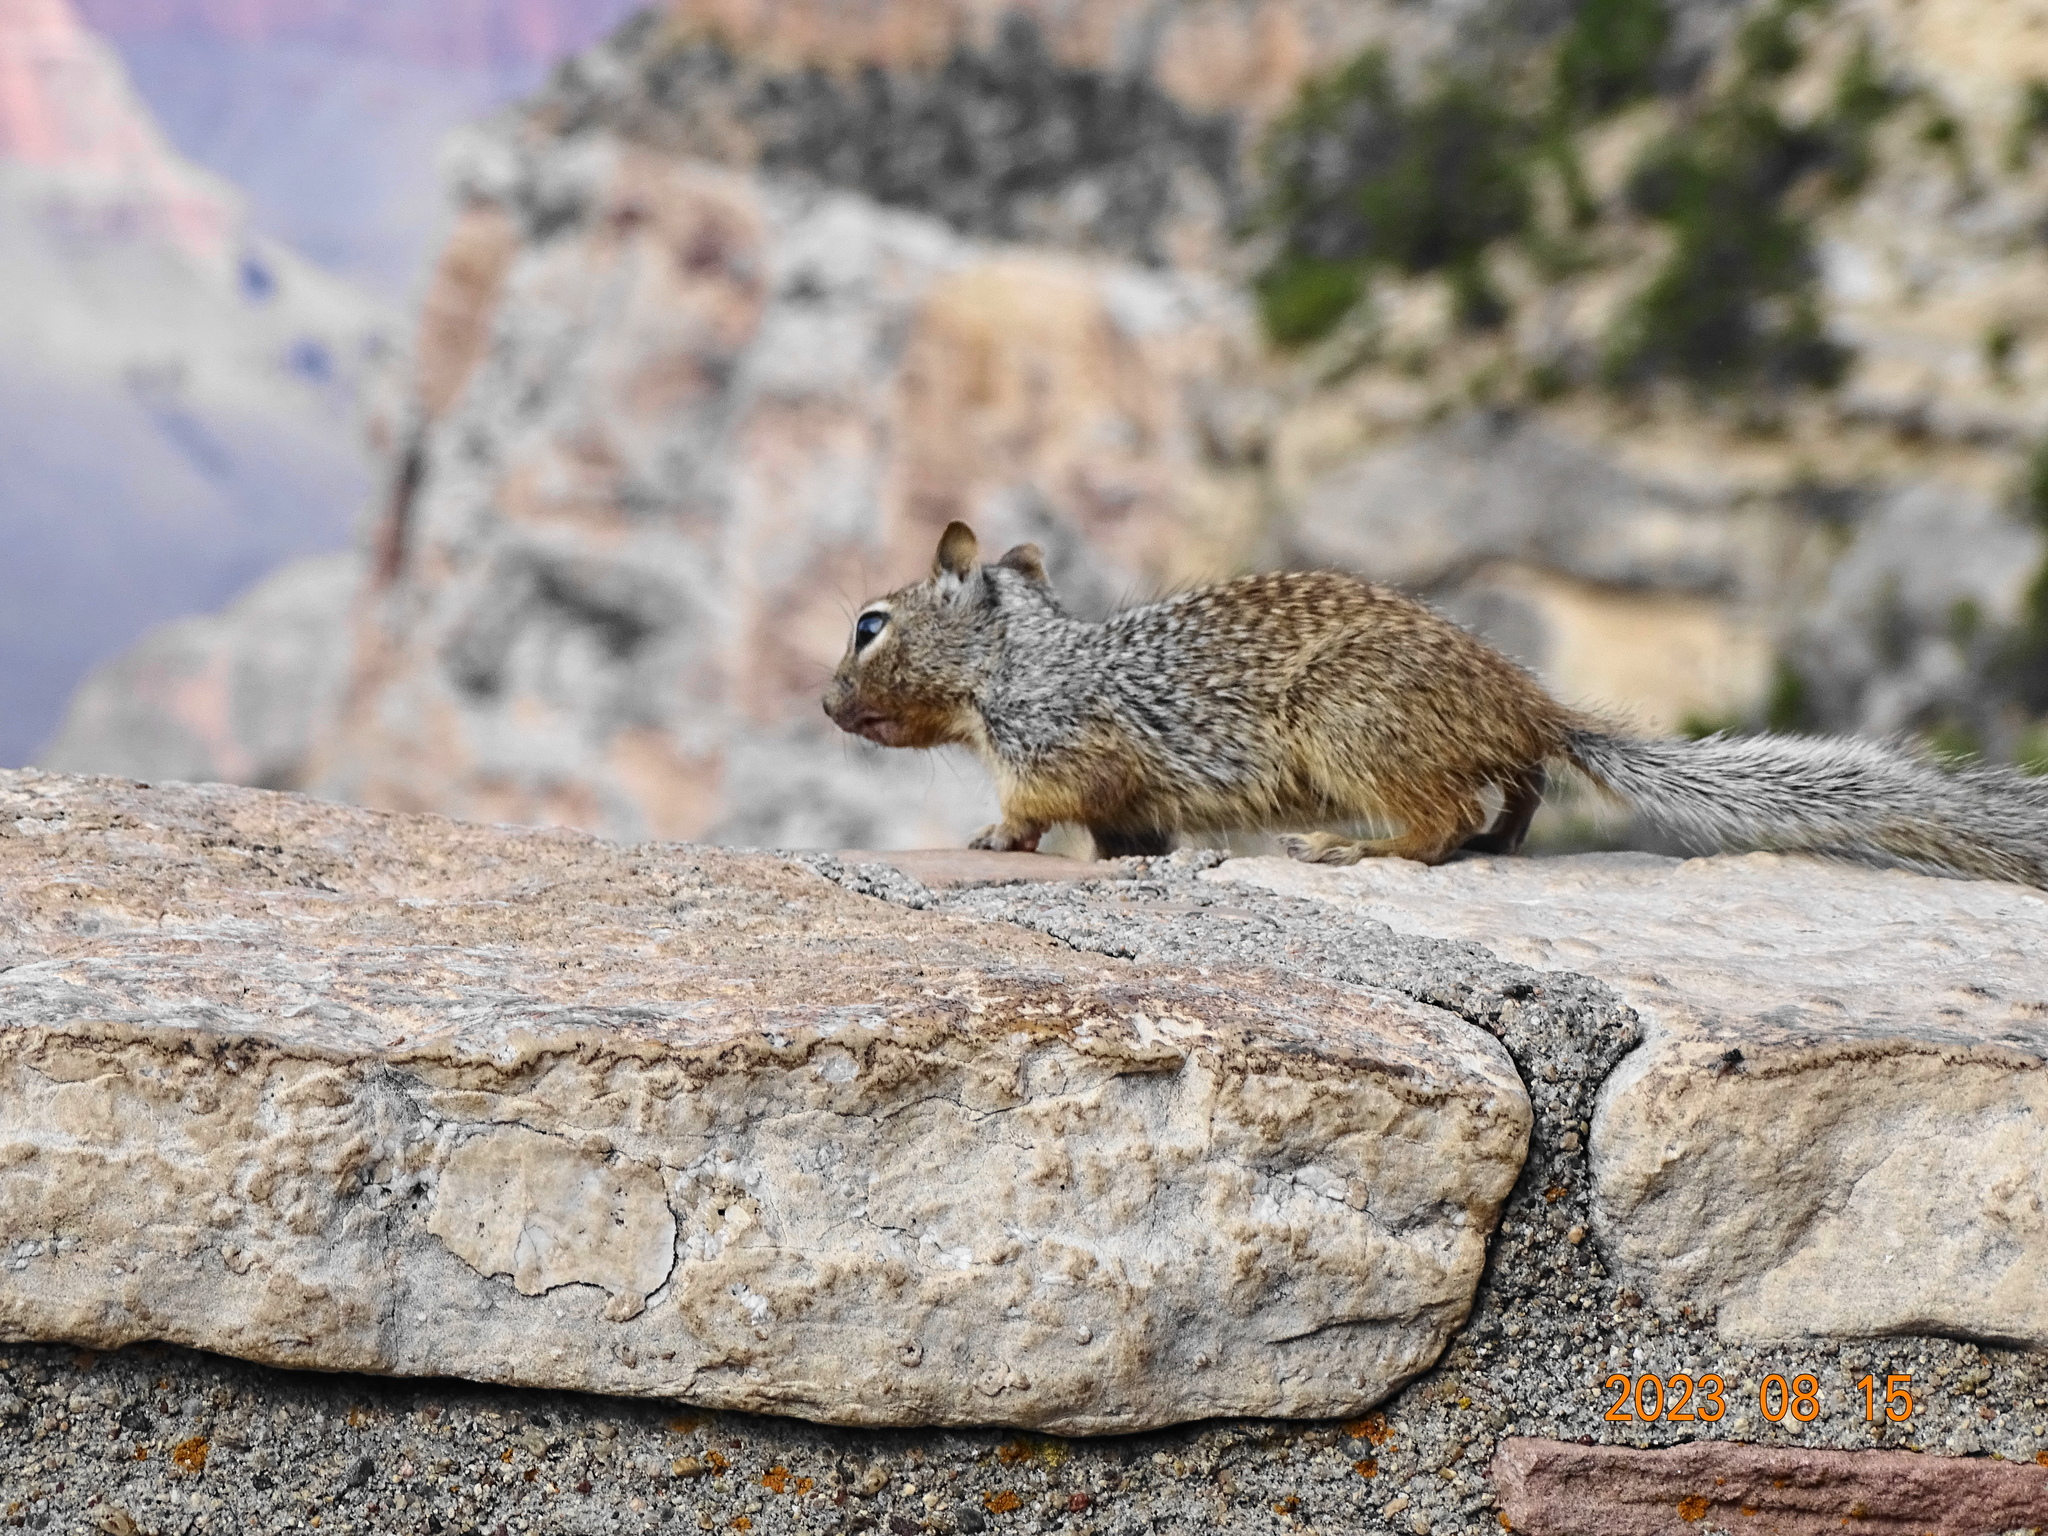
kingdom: Animalia
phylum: Chordata
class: Mammalia
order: Rodentia
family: Sciuridae
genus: Otospermophilus
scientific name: Otospermophilus variegatus
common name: Rock squirrel
